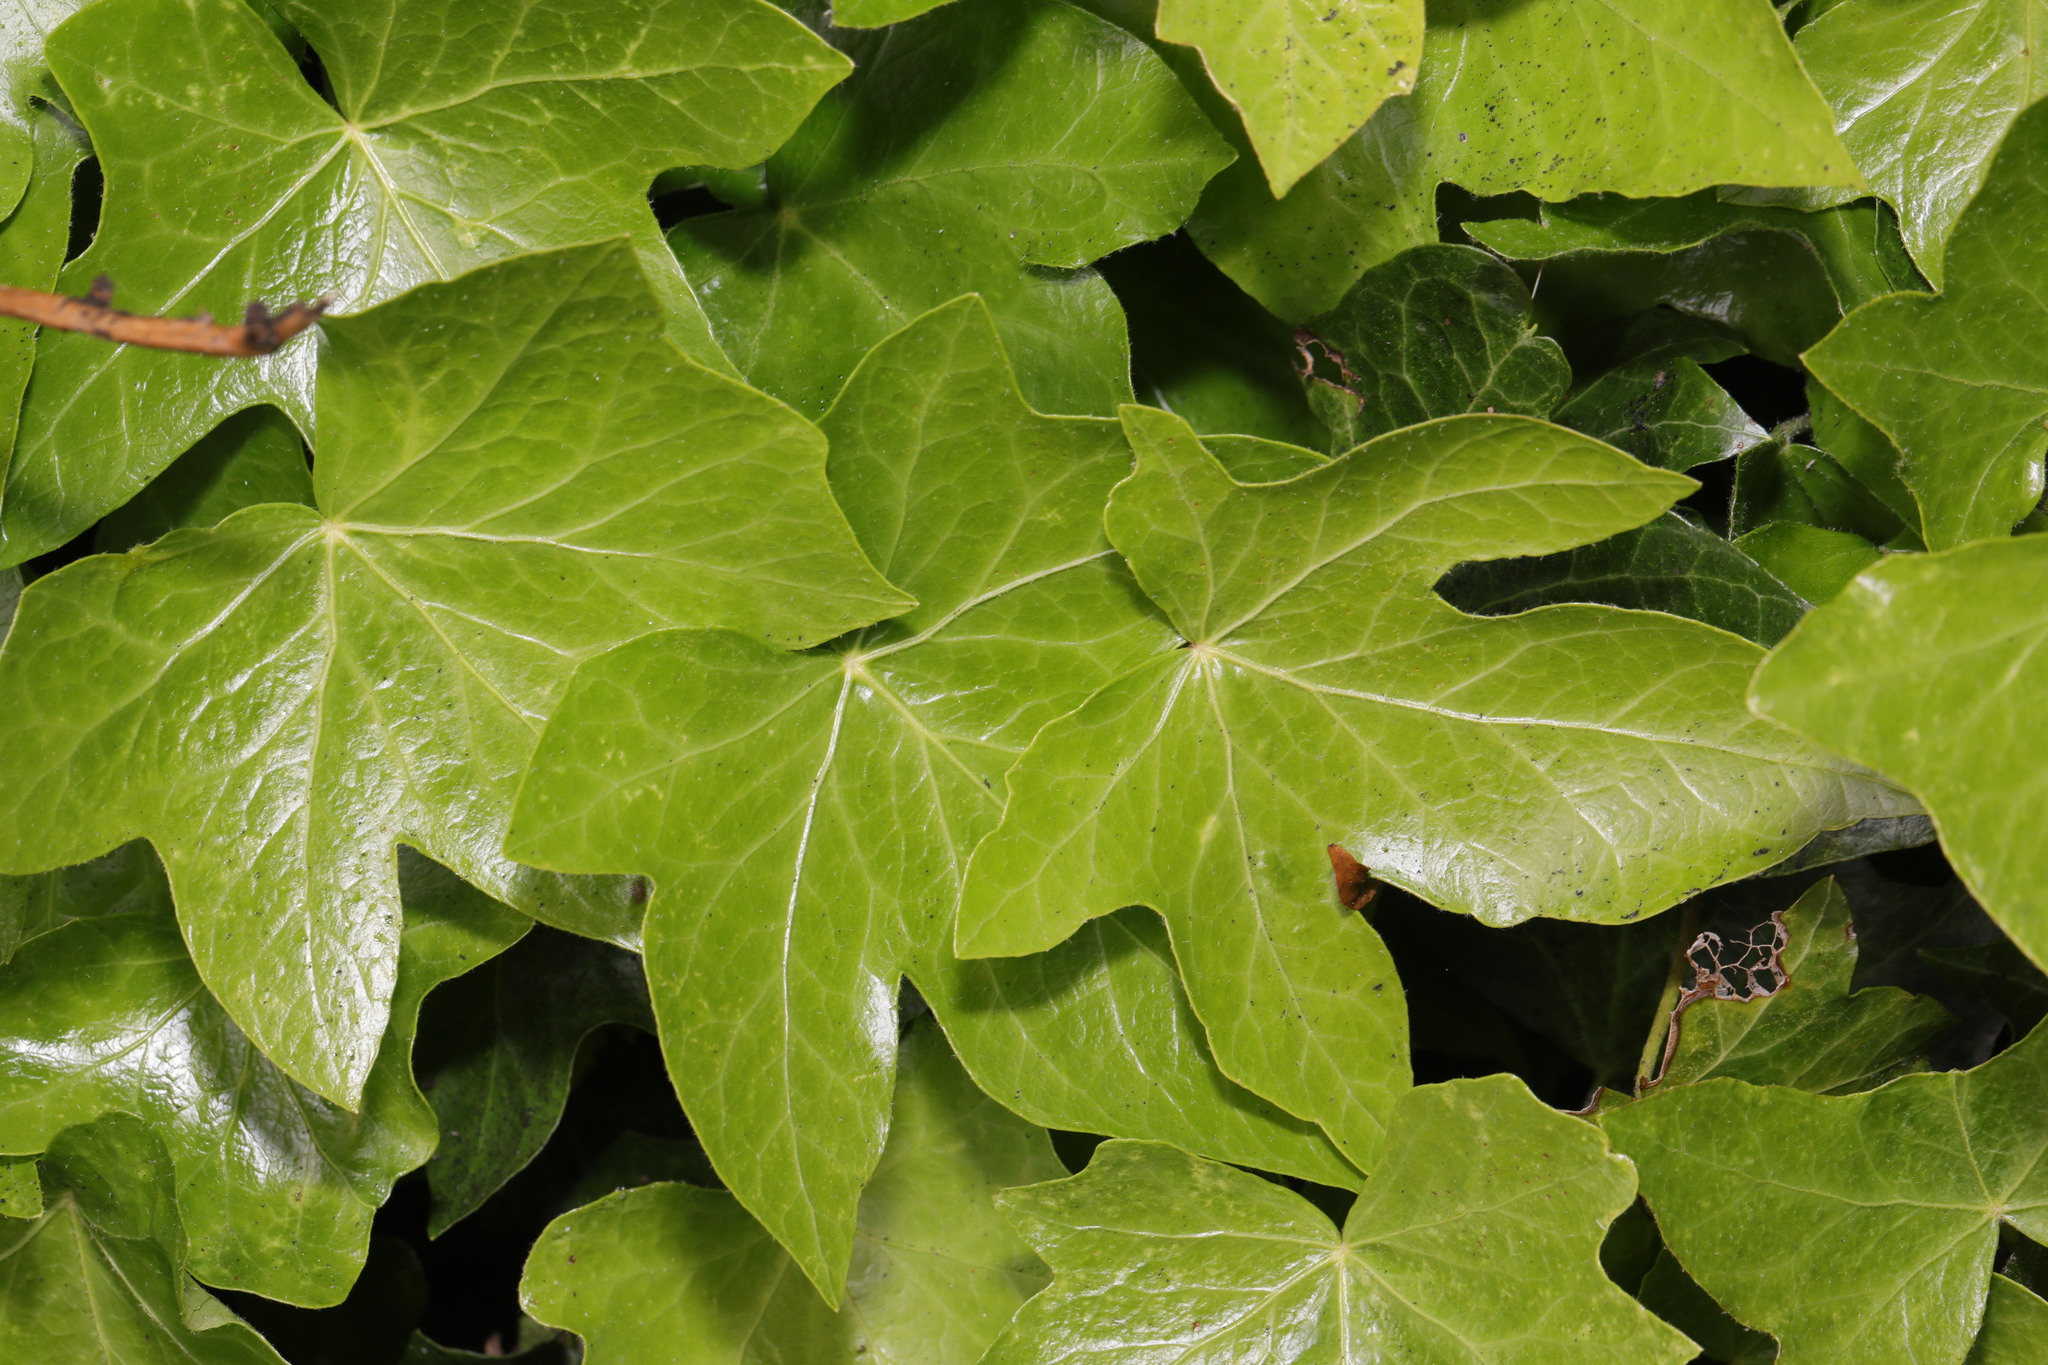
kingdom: Plantae
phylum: Tracheophyta
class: Magnoliopsida
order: Apiales
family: Araliaceae
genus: Hedera
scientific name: Hedera helix
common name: Ivy
